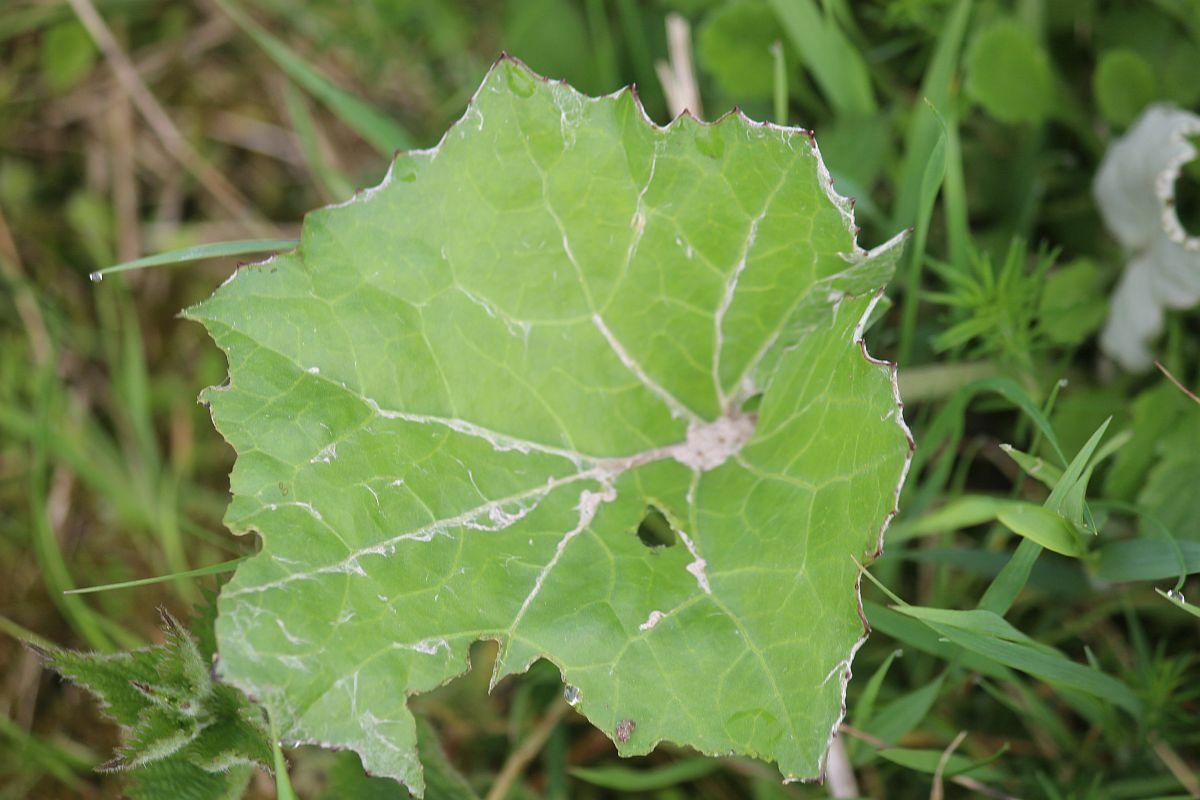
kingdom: Plantae
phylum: Tracheophyta
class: Magnoliopsida
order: Asterales
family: Asteraceae
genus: Tussilago
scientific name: Tussilago farfara
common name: Coltsfoot
